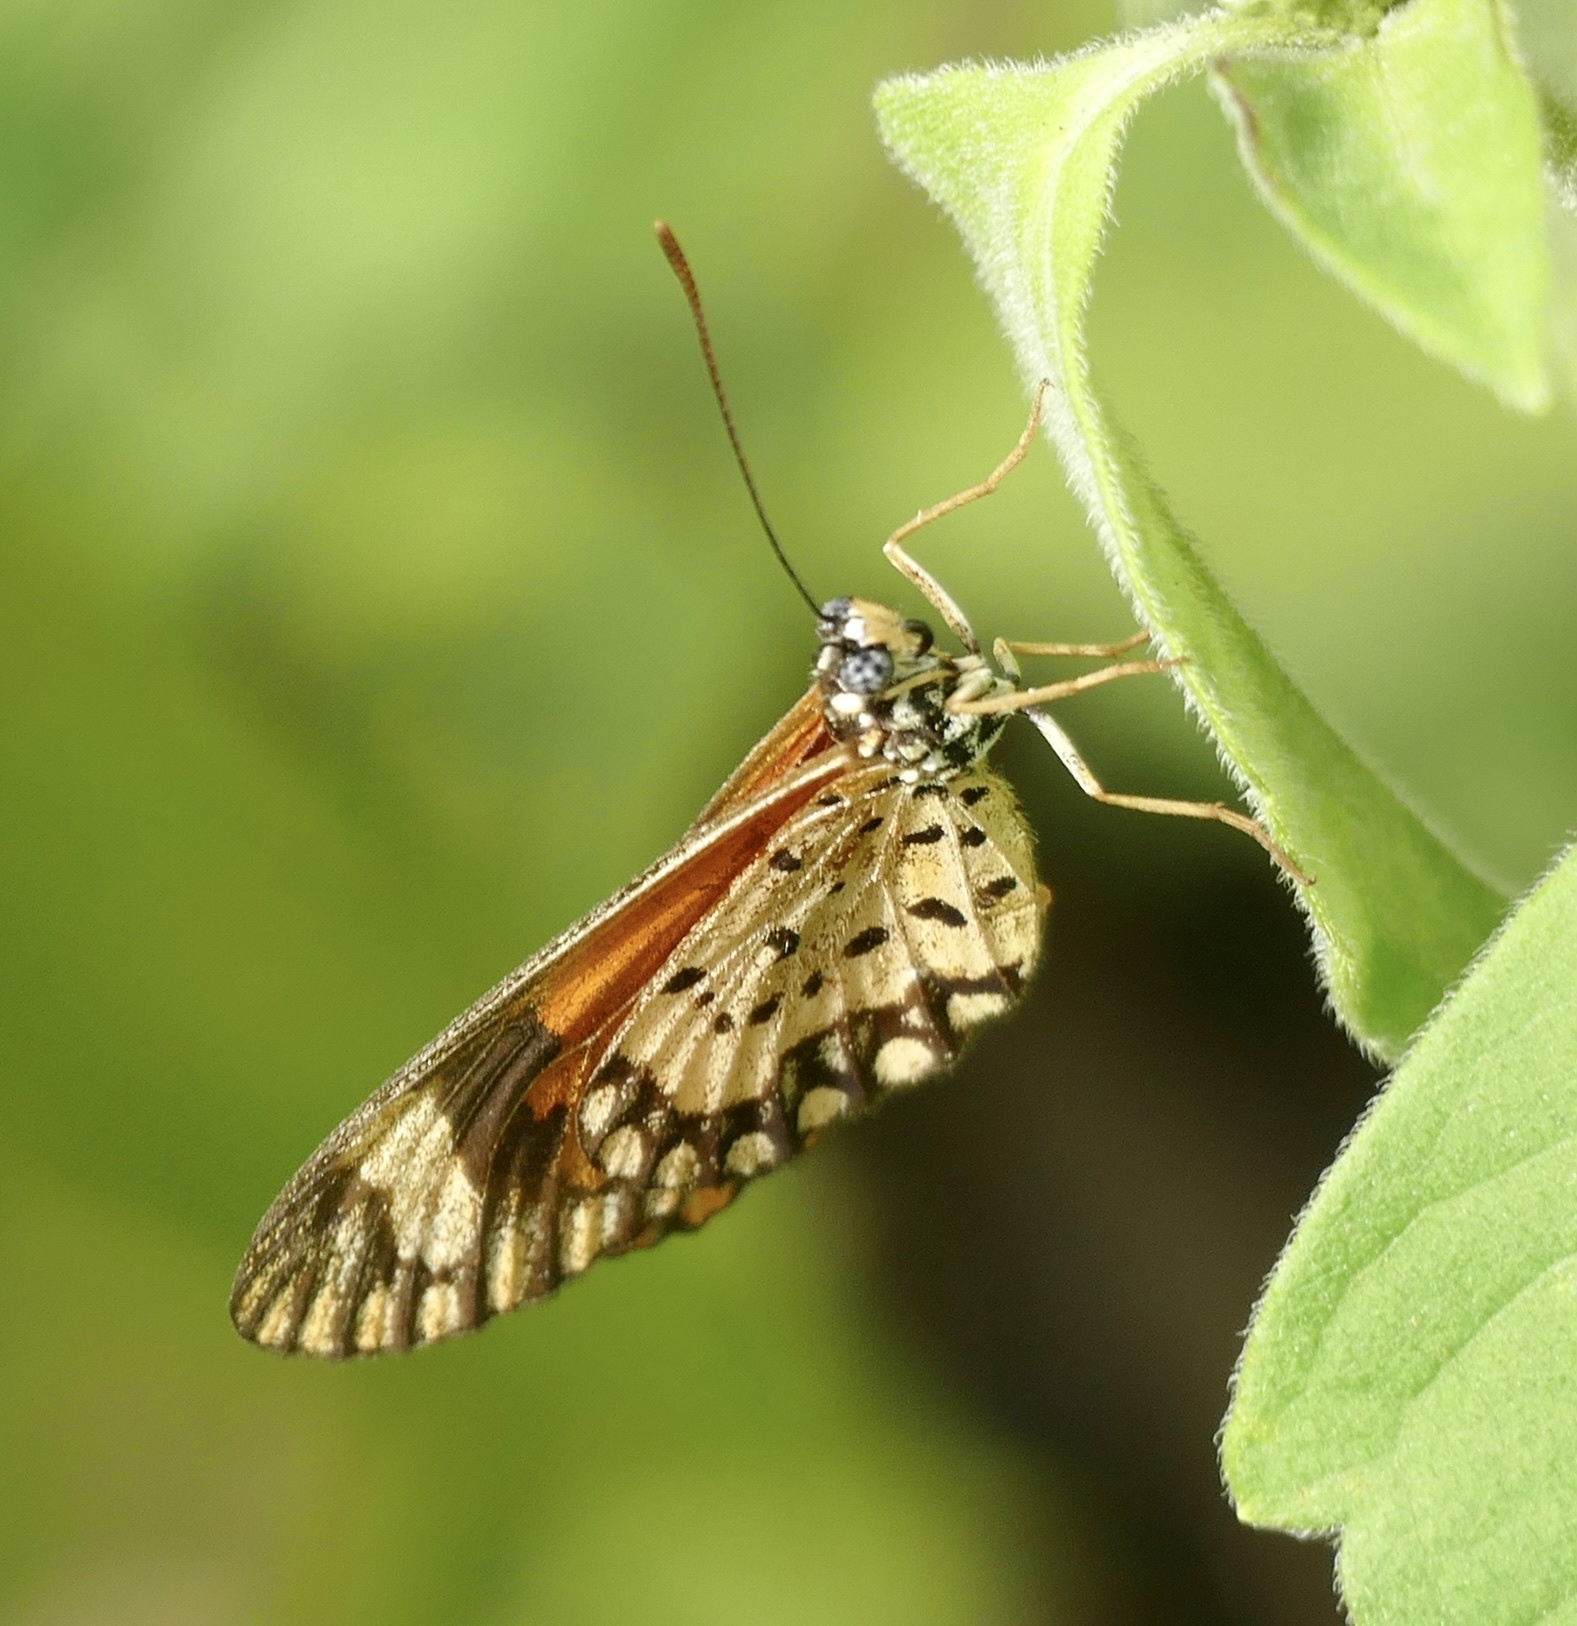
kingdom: Animalia
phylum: Arthropoda
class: Insecta
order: Lepidoptera
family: Nymphalidae
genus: Acraea
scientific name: Acraea Telchinia serena
